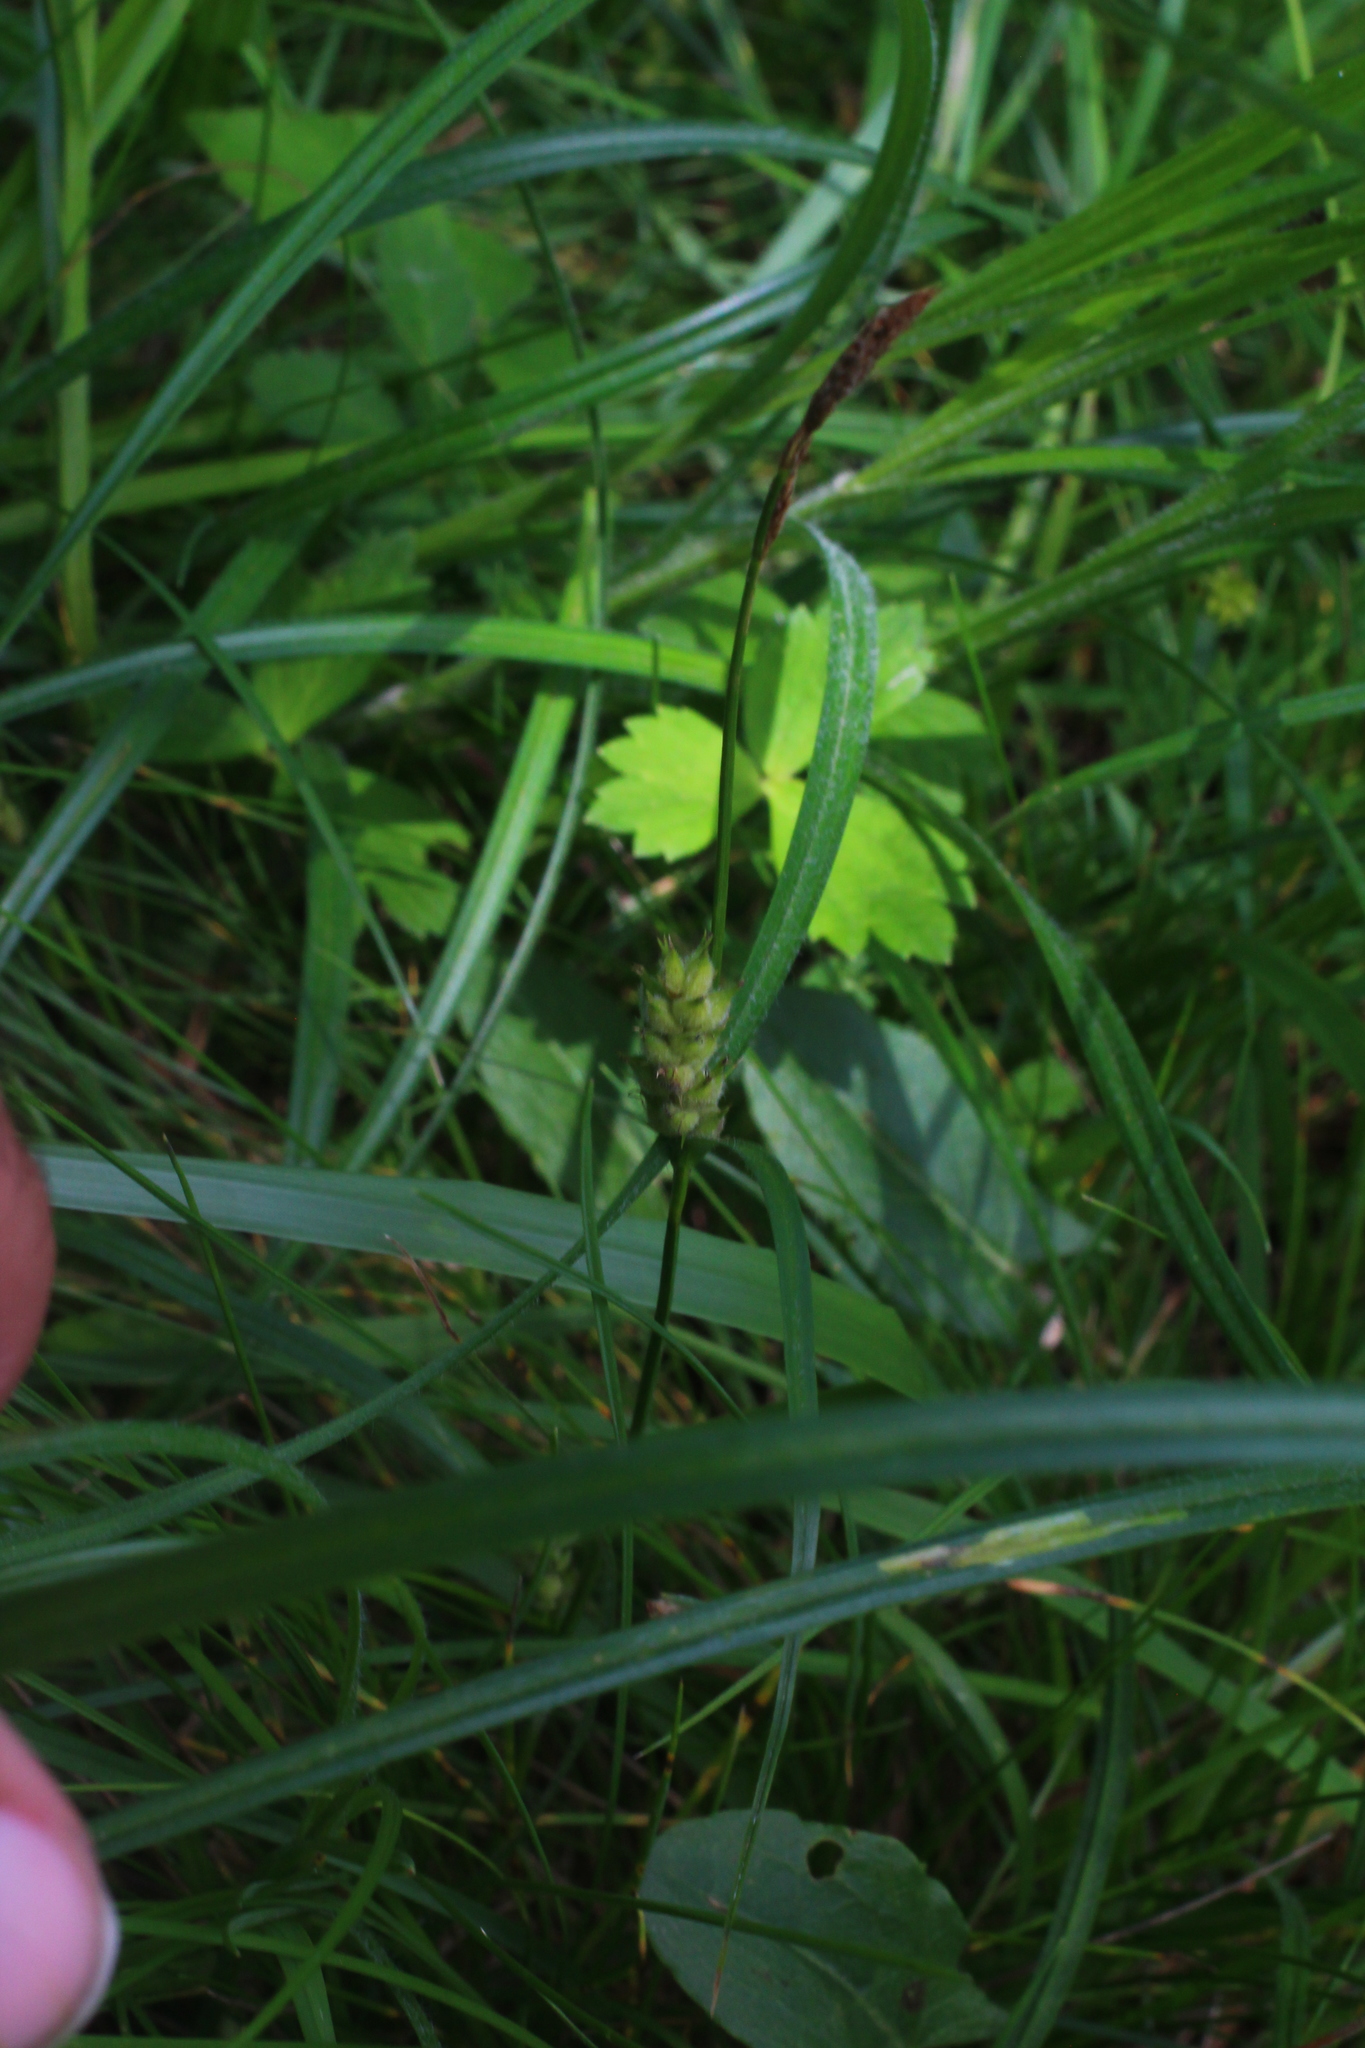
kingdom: Plantae
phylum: Tracheophyta
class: Liliopsida
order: Poales
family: Cyperaceae
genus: Carex
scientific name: Carex hirta
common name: Hairy sedge
